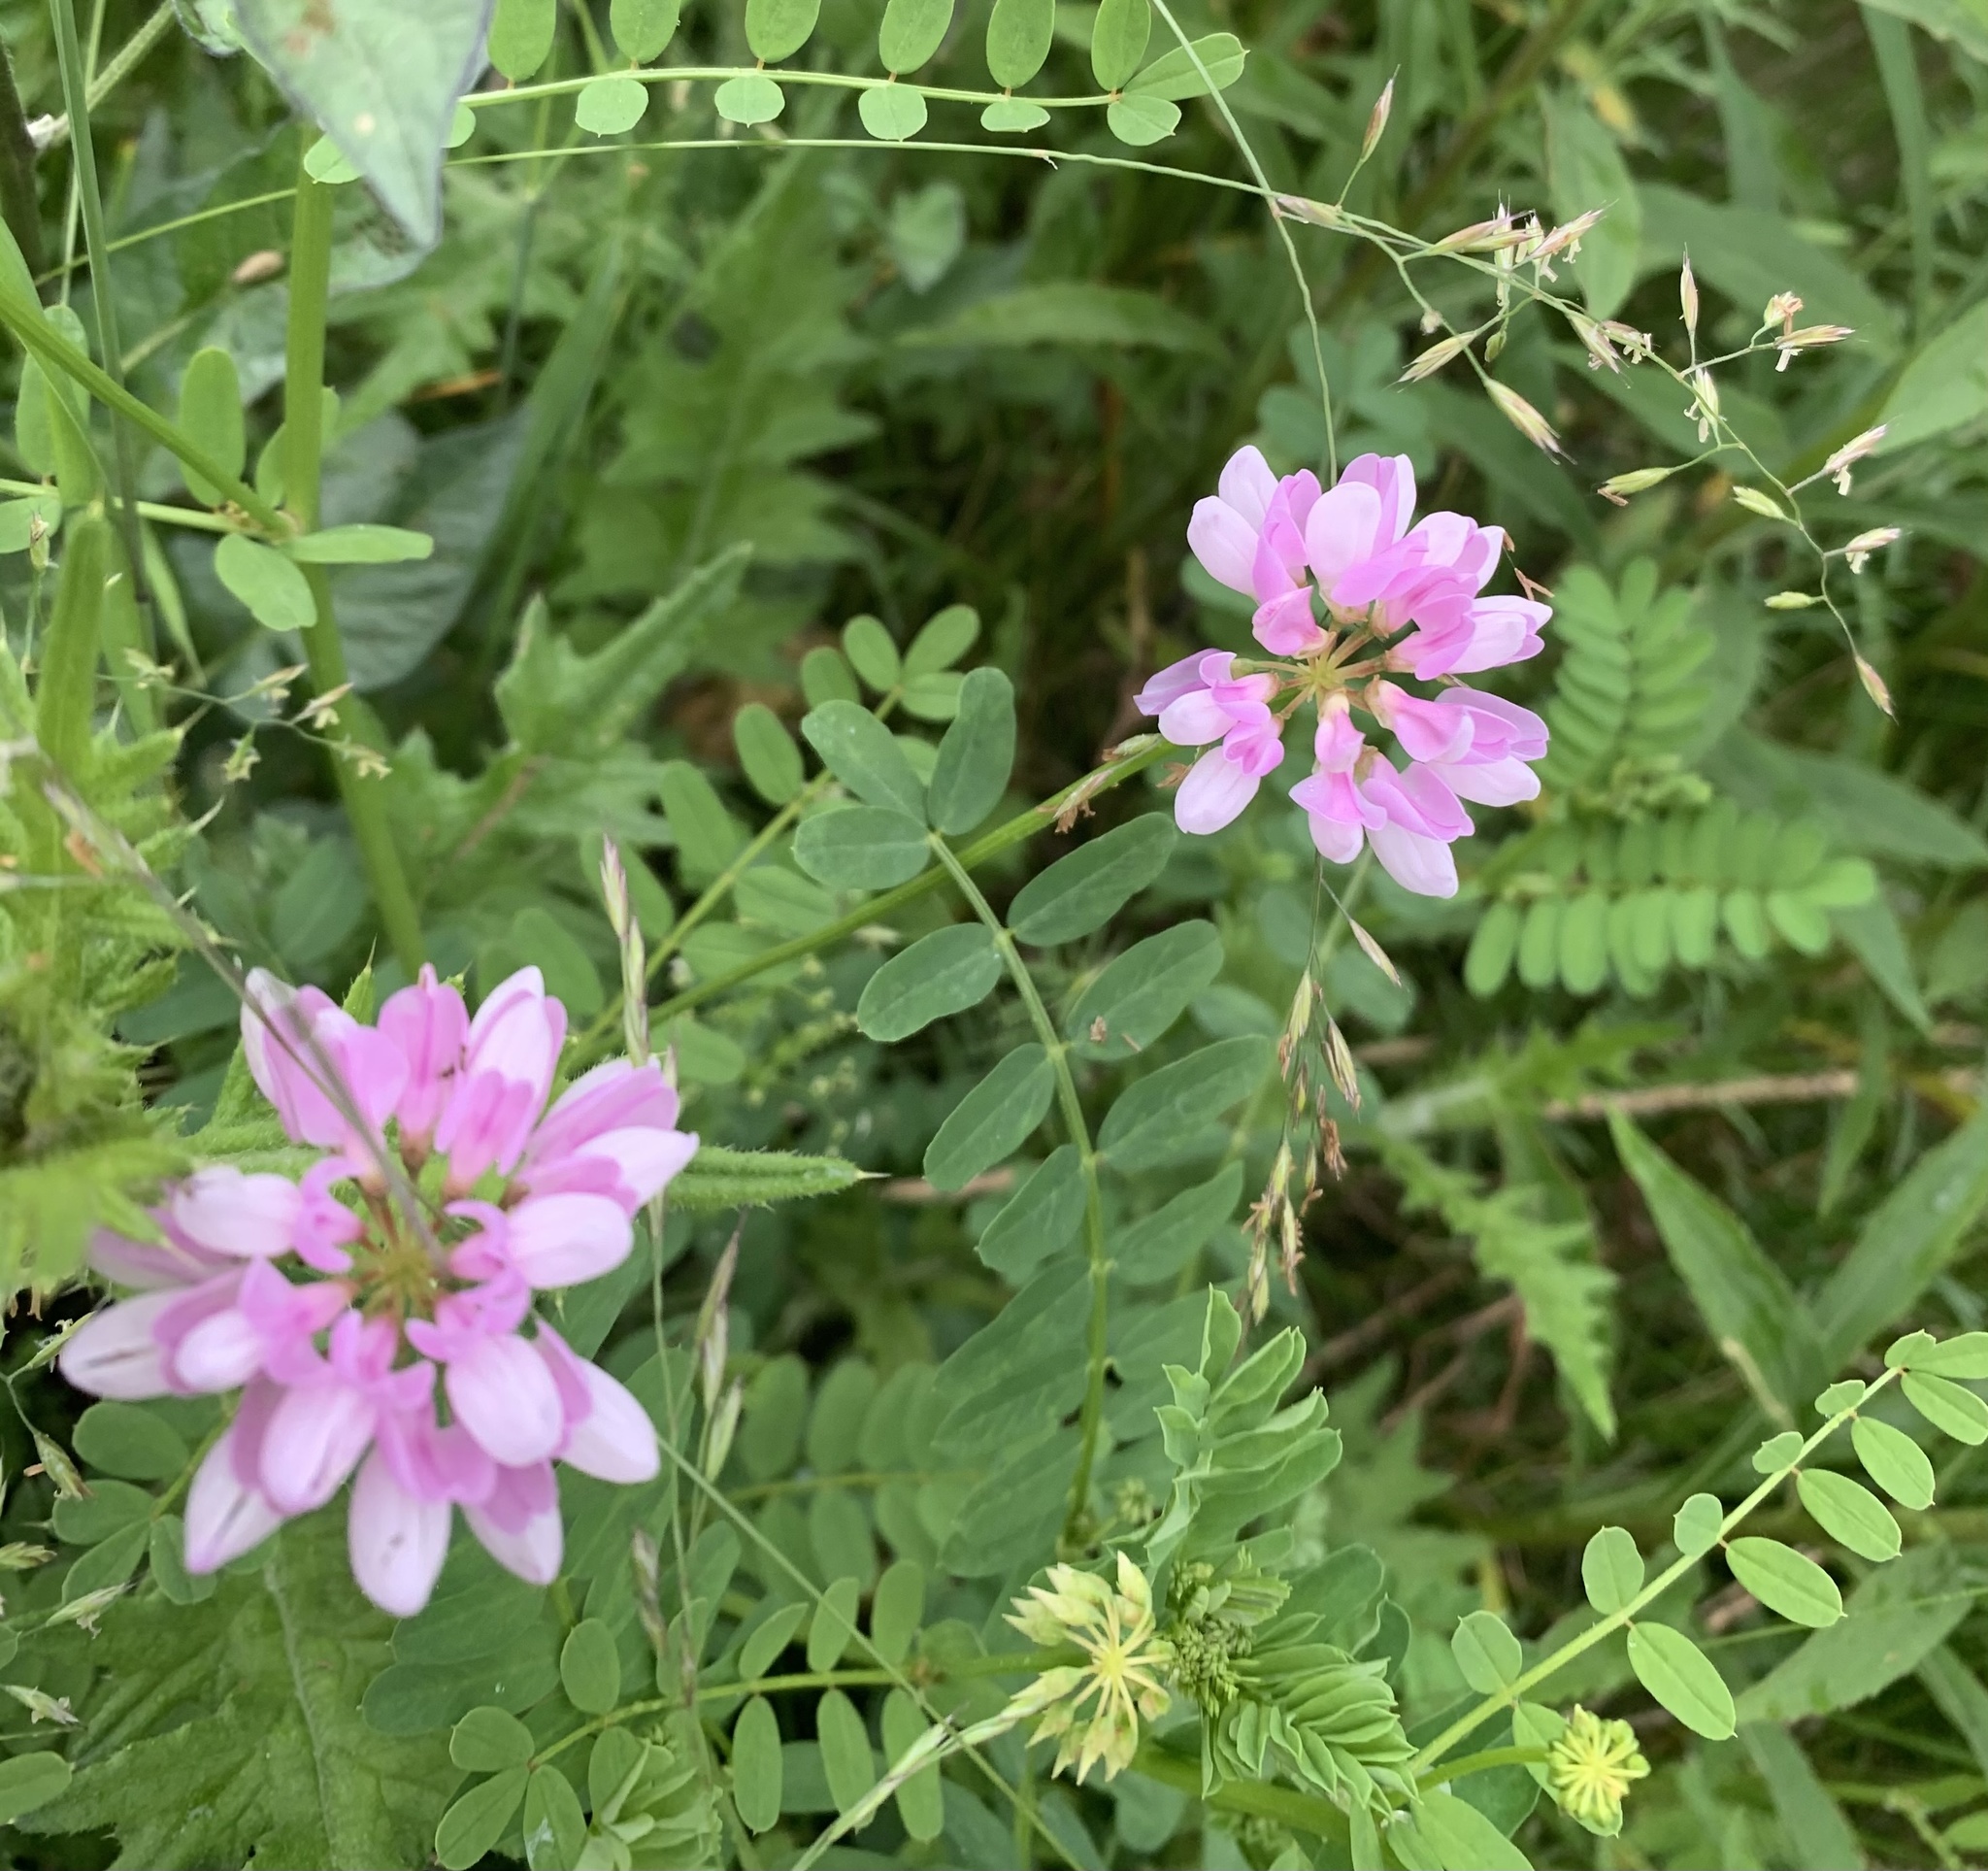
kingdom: Plantae
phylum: Tracheophyta
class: Magnoliopsida
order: Fabales
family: Fabaceae
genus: Coronilla
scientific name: Coronilla varia
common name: Crownvetch
